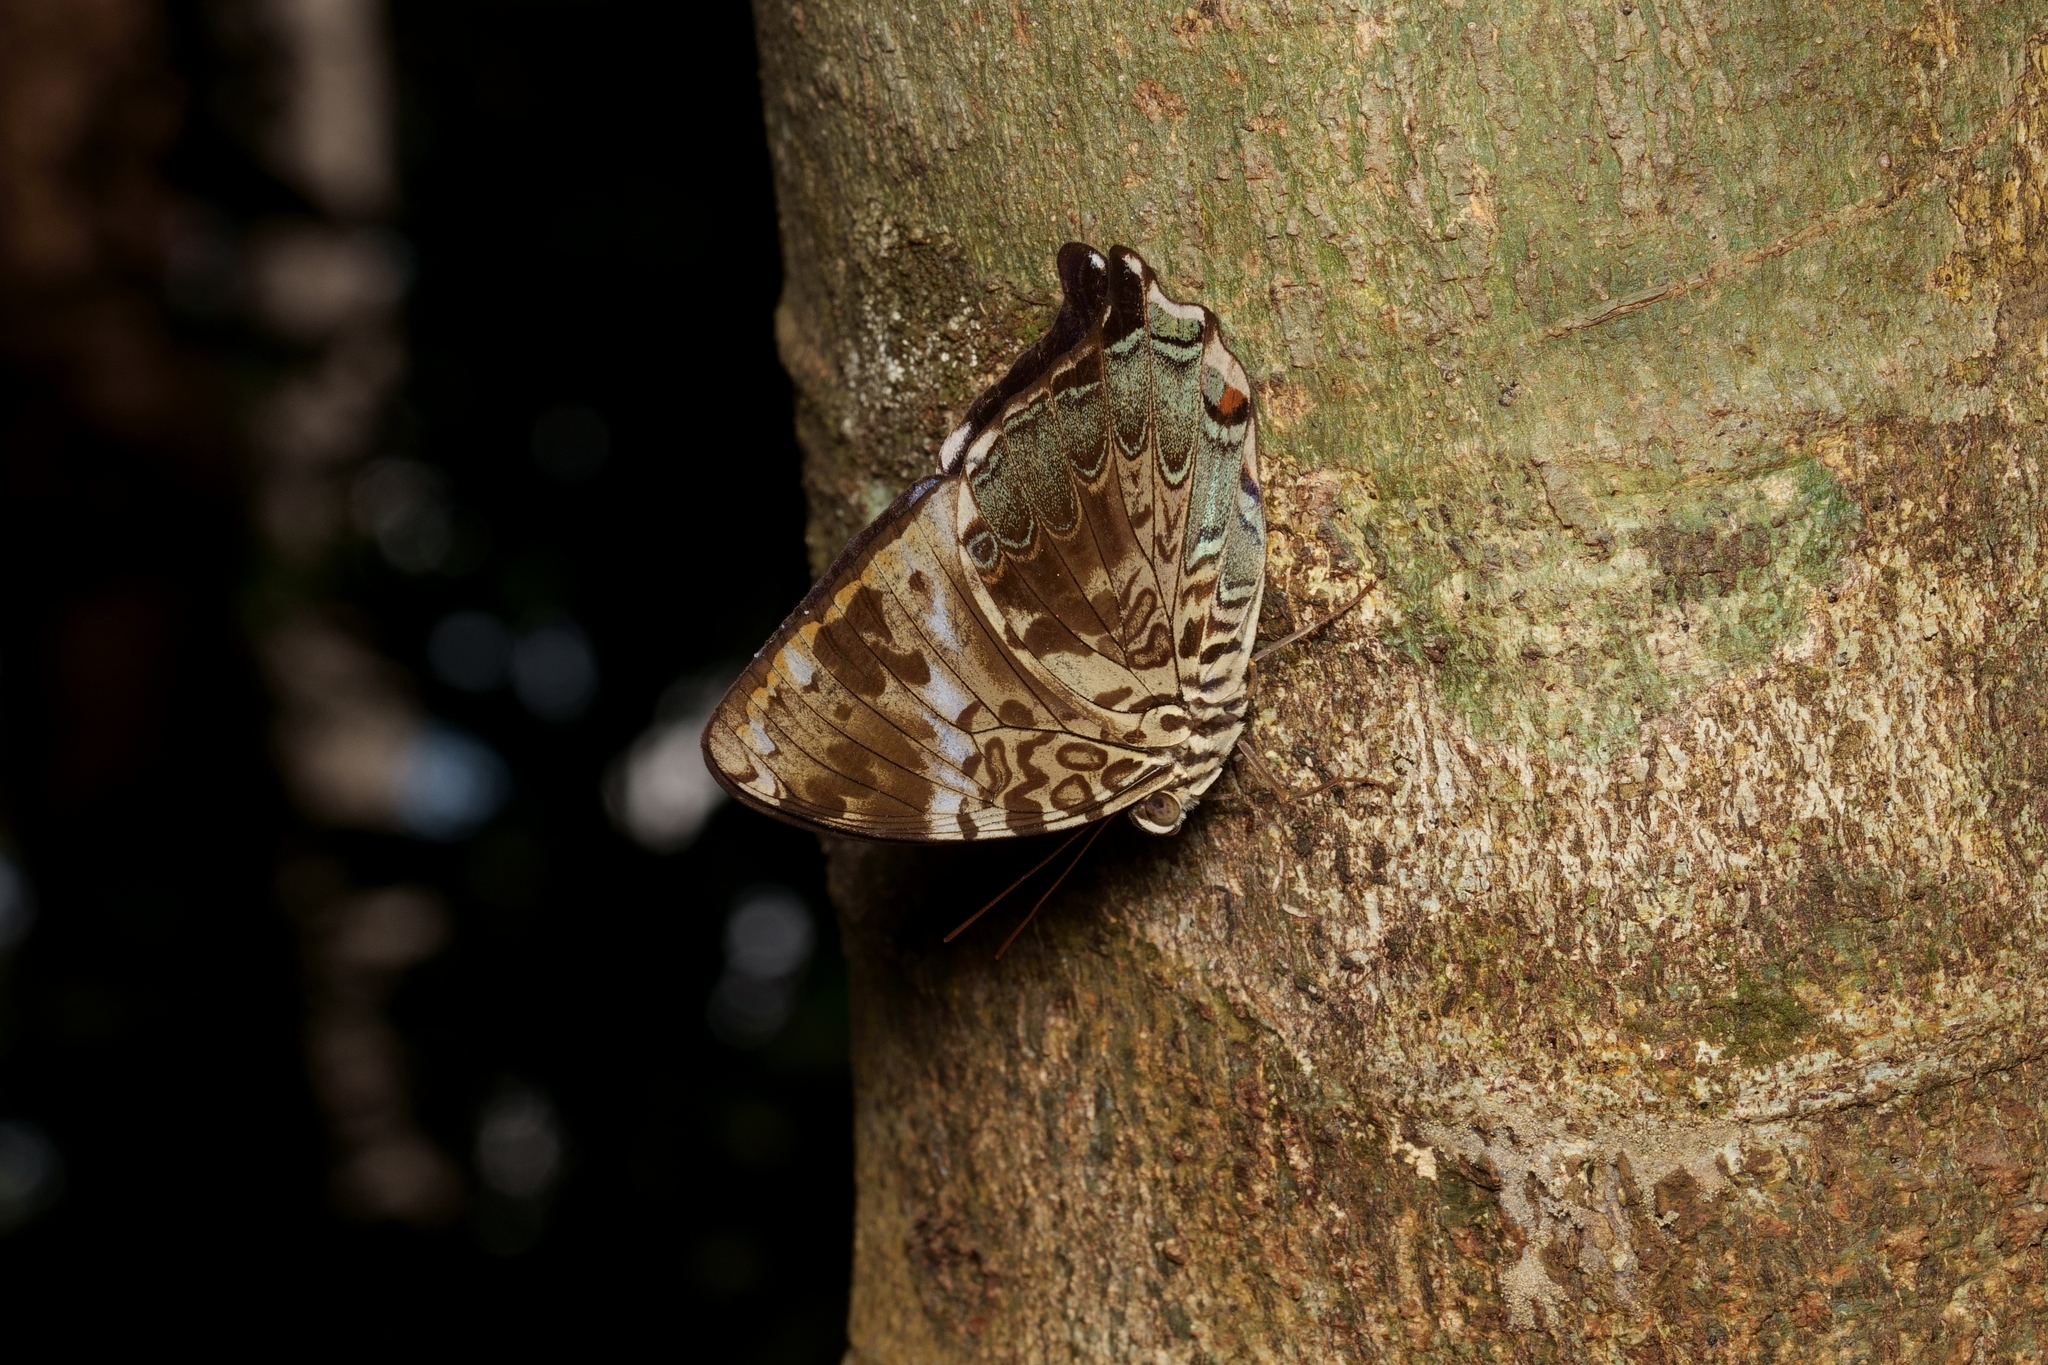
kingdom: Animalia
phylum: Arthropoda
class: Insecta
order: Lepidoptera
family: Nymphalidae
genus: Prothoe
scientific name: Prothoe franck
